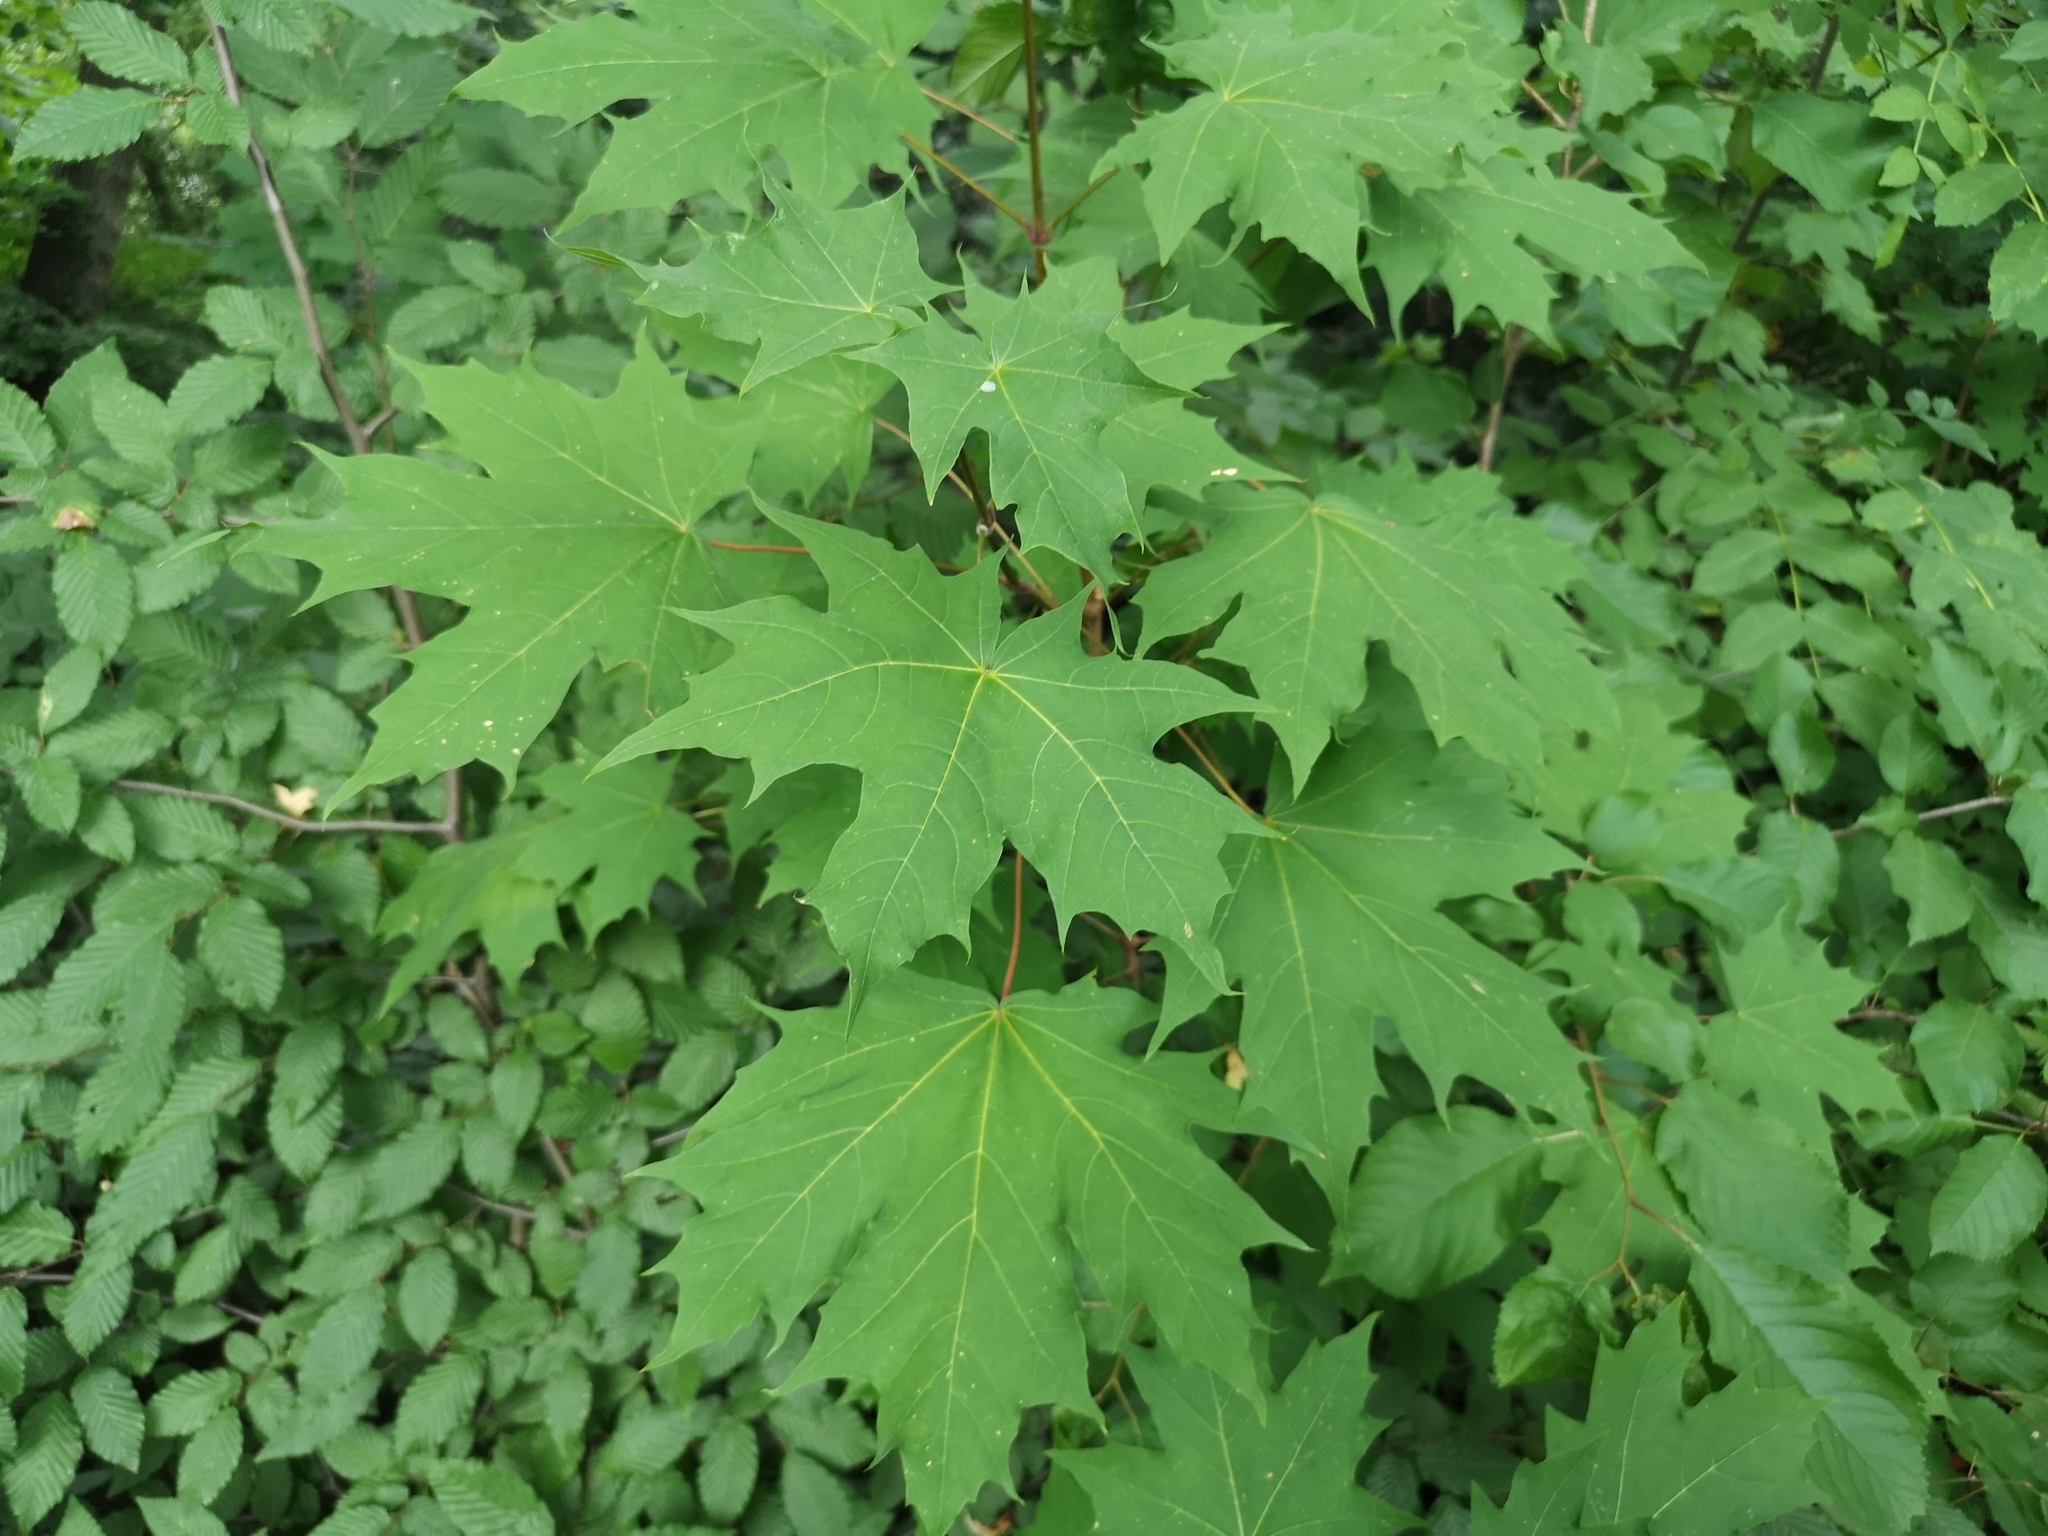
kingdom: Plantae
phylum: Tracheophyta
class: Magnoliopsida
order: Sapindales
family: Sapindaceae
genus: Acer
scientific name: Acer platanoides
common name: Norway maple
